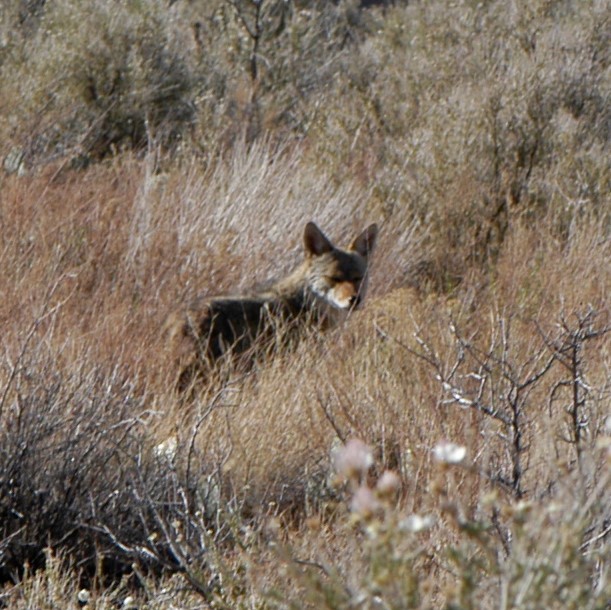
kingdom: Animalia
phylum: Chordata
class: Mammalia
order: Carnivora
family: Canidae
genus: Canis
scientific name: Canis latrans
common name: Coyote
